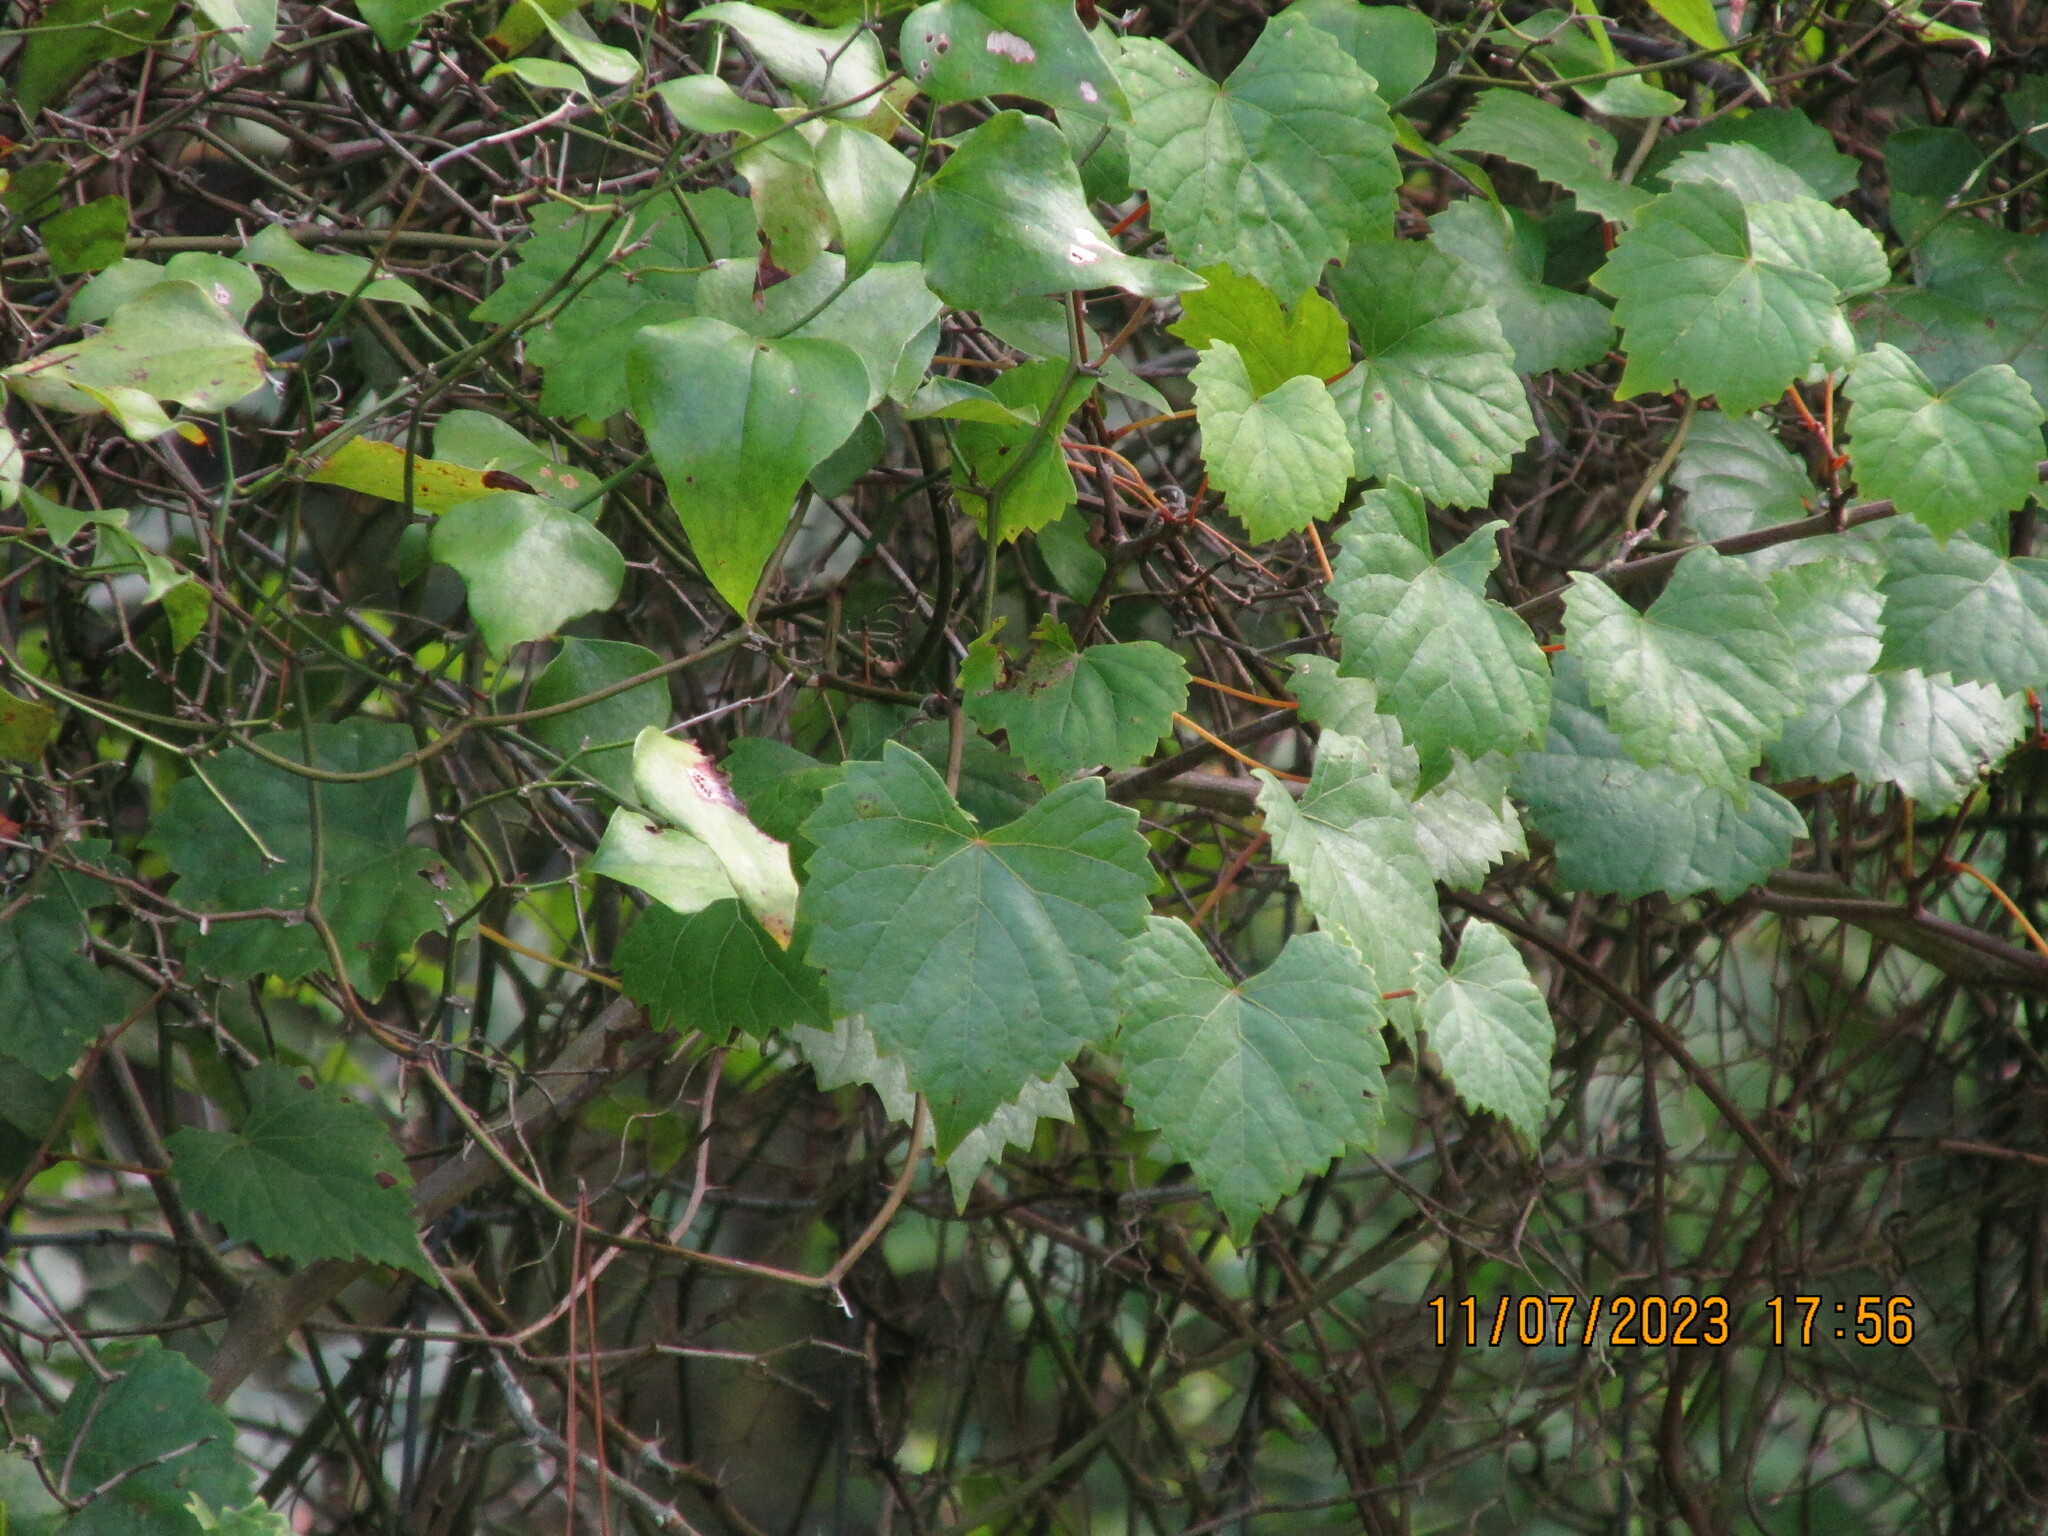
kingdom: Plantae
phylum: Tracheophyta
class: Magnoliopsida
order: Vitales
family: Vitaceae
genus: Vitis
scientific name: Vitis rotundifolia
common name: Muscadine grape
